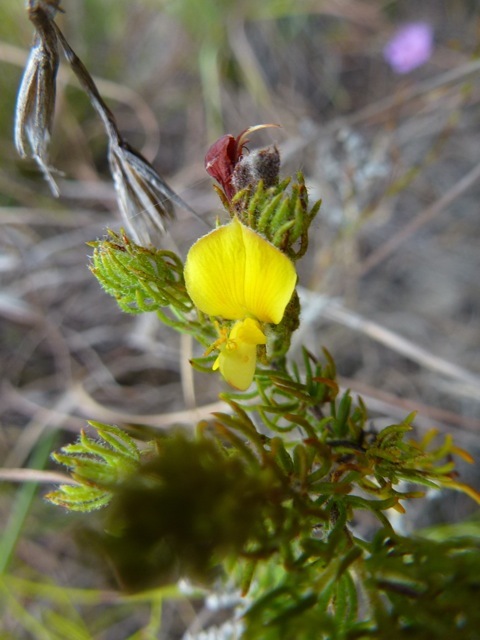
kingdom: Plantae
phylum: Tracheophyta
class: Magnoliopsida
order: Fabales
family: Fabaceae
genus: Aspalathus
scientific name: Aspalathus ciliaris
